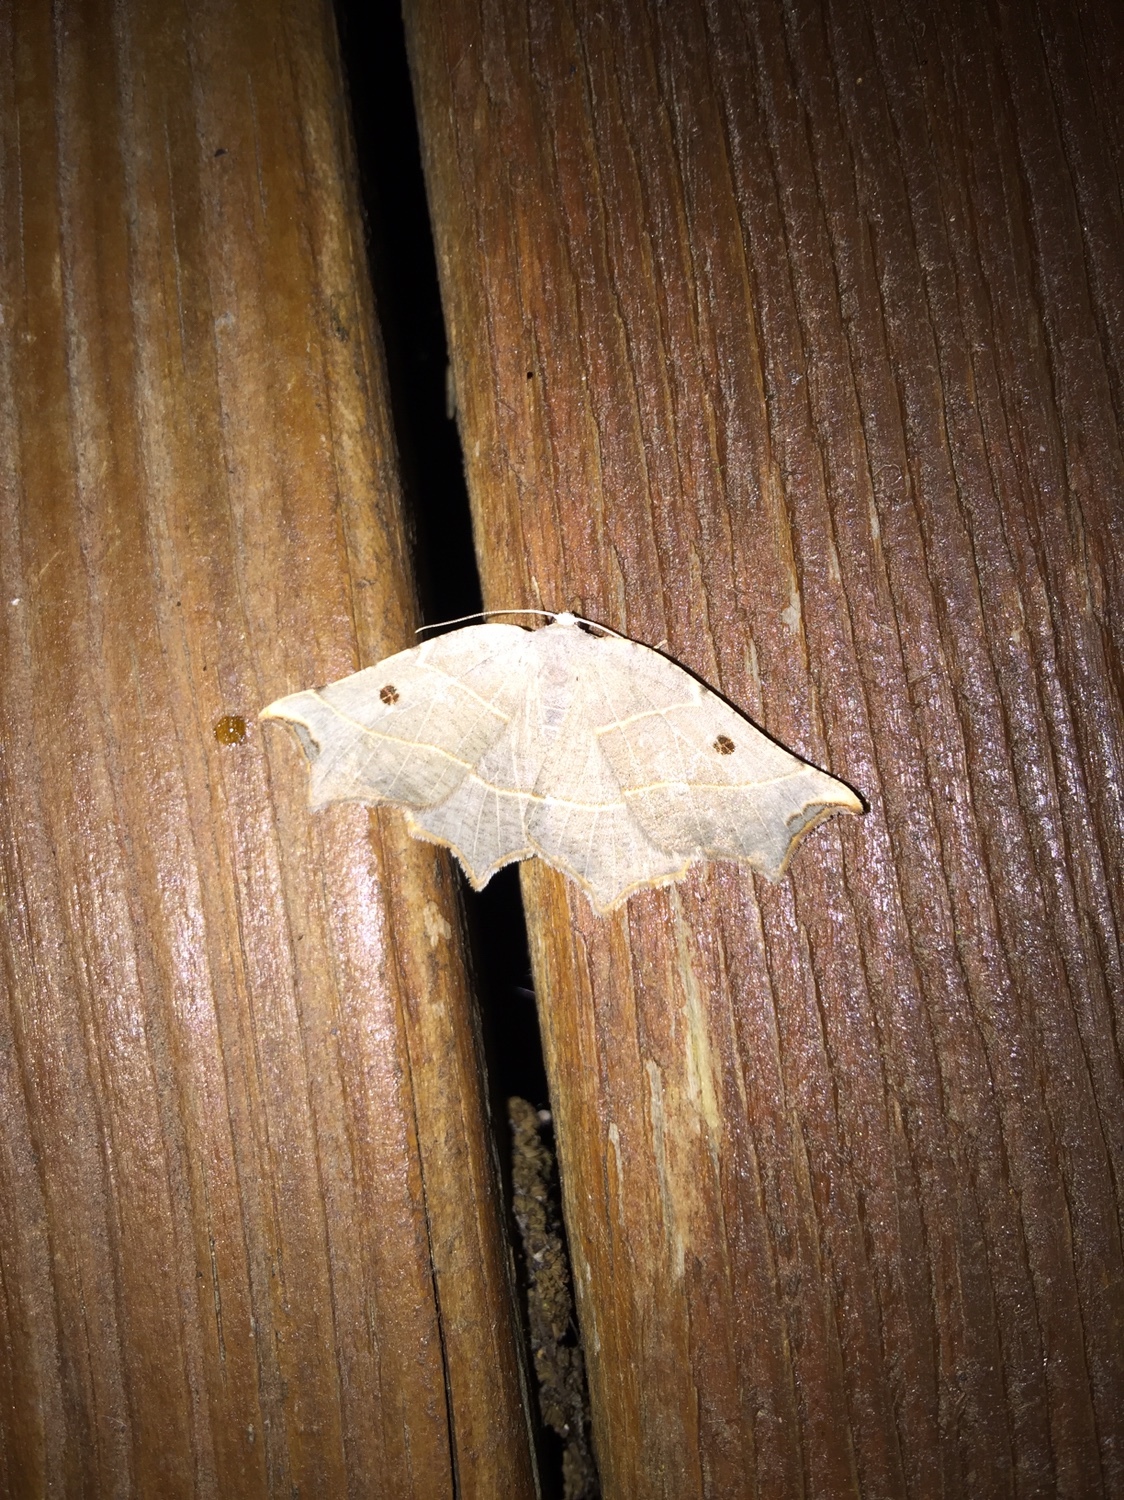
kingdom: Animalia
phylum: Arthropoda
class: Insecta
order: Lepidoptera
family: Geometridae
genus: Metanema
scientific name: Metanema inatomaria
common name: Pale metanema
